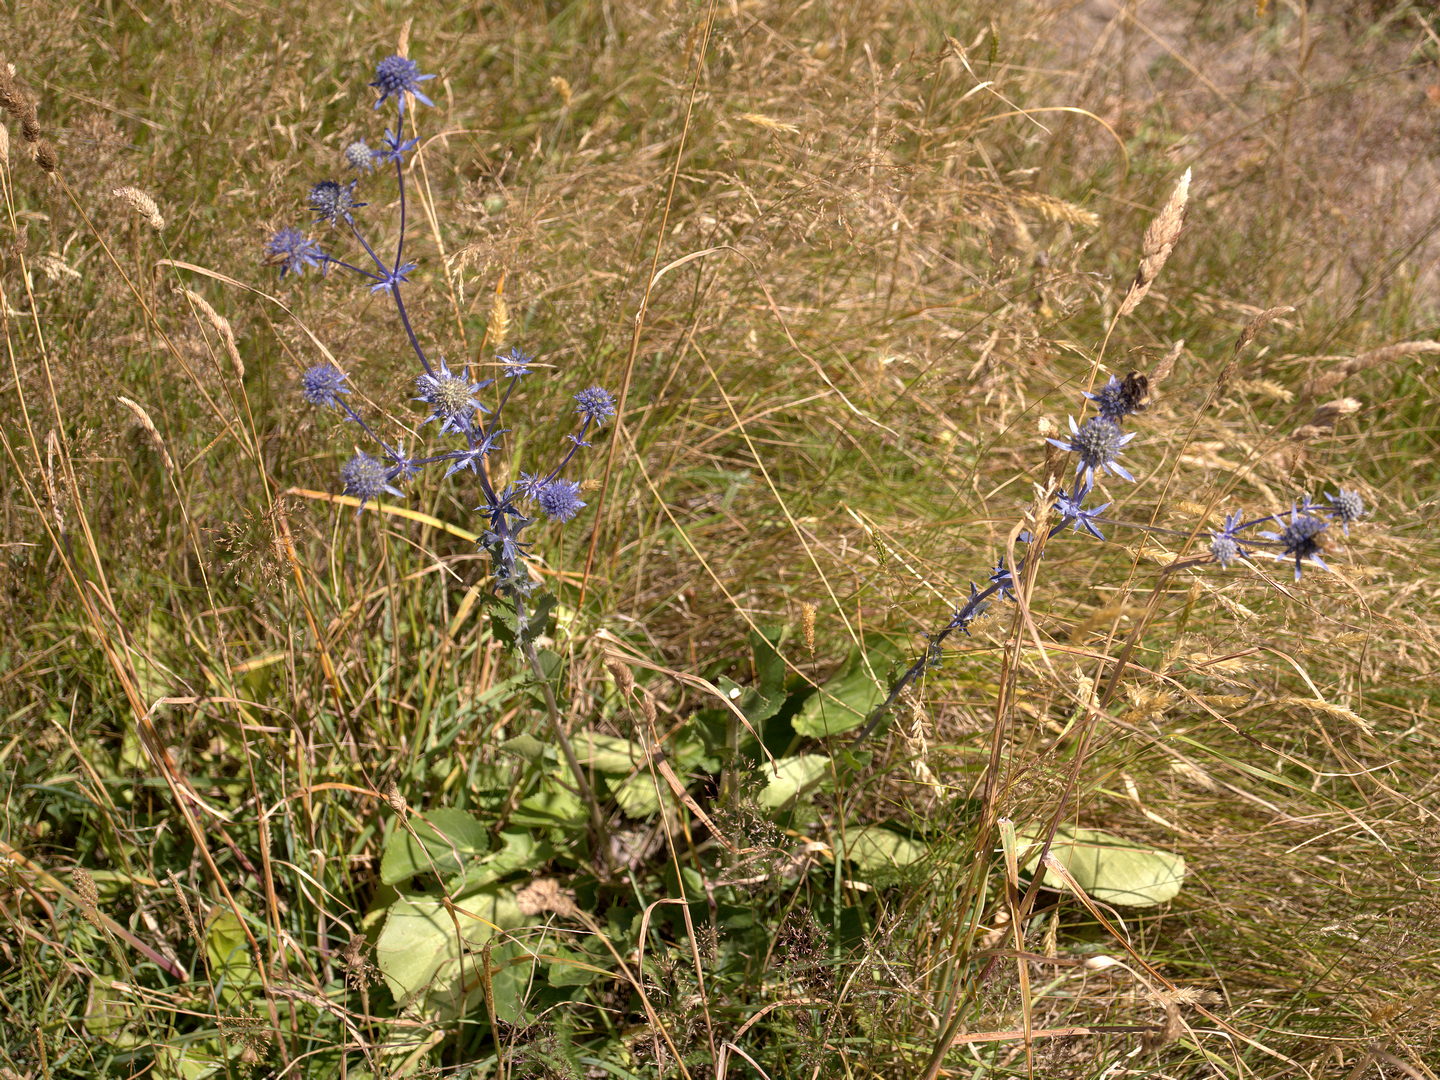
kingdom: Plantae
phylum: Tracheophyta
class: Magnoliopsida
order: Apiales
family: Apiaceae
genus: Eryngium
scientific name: Eryngium planum
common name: Blue eryngo
